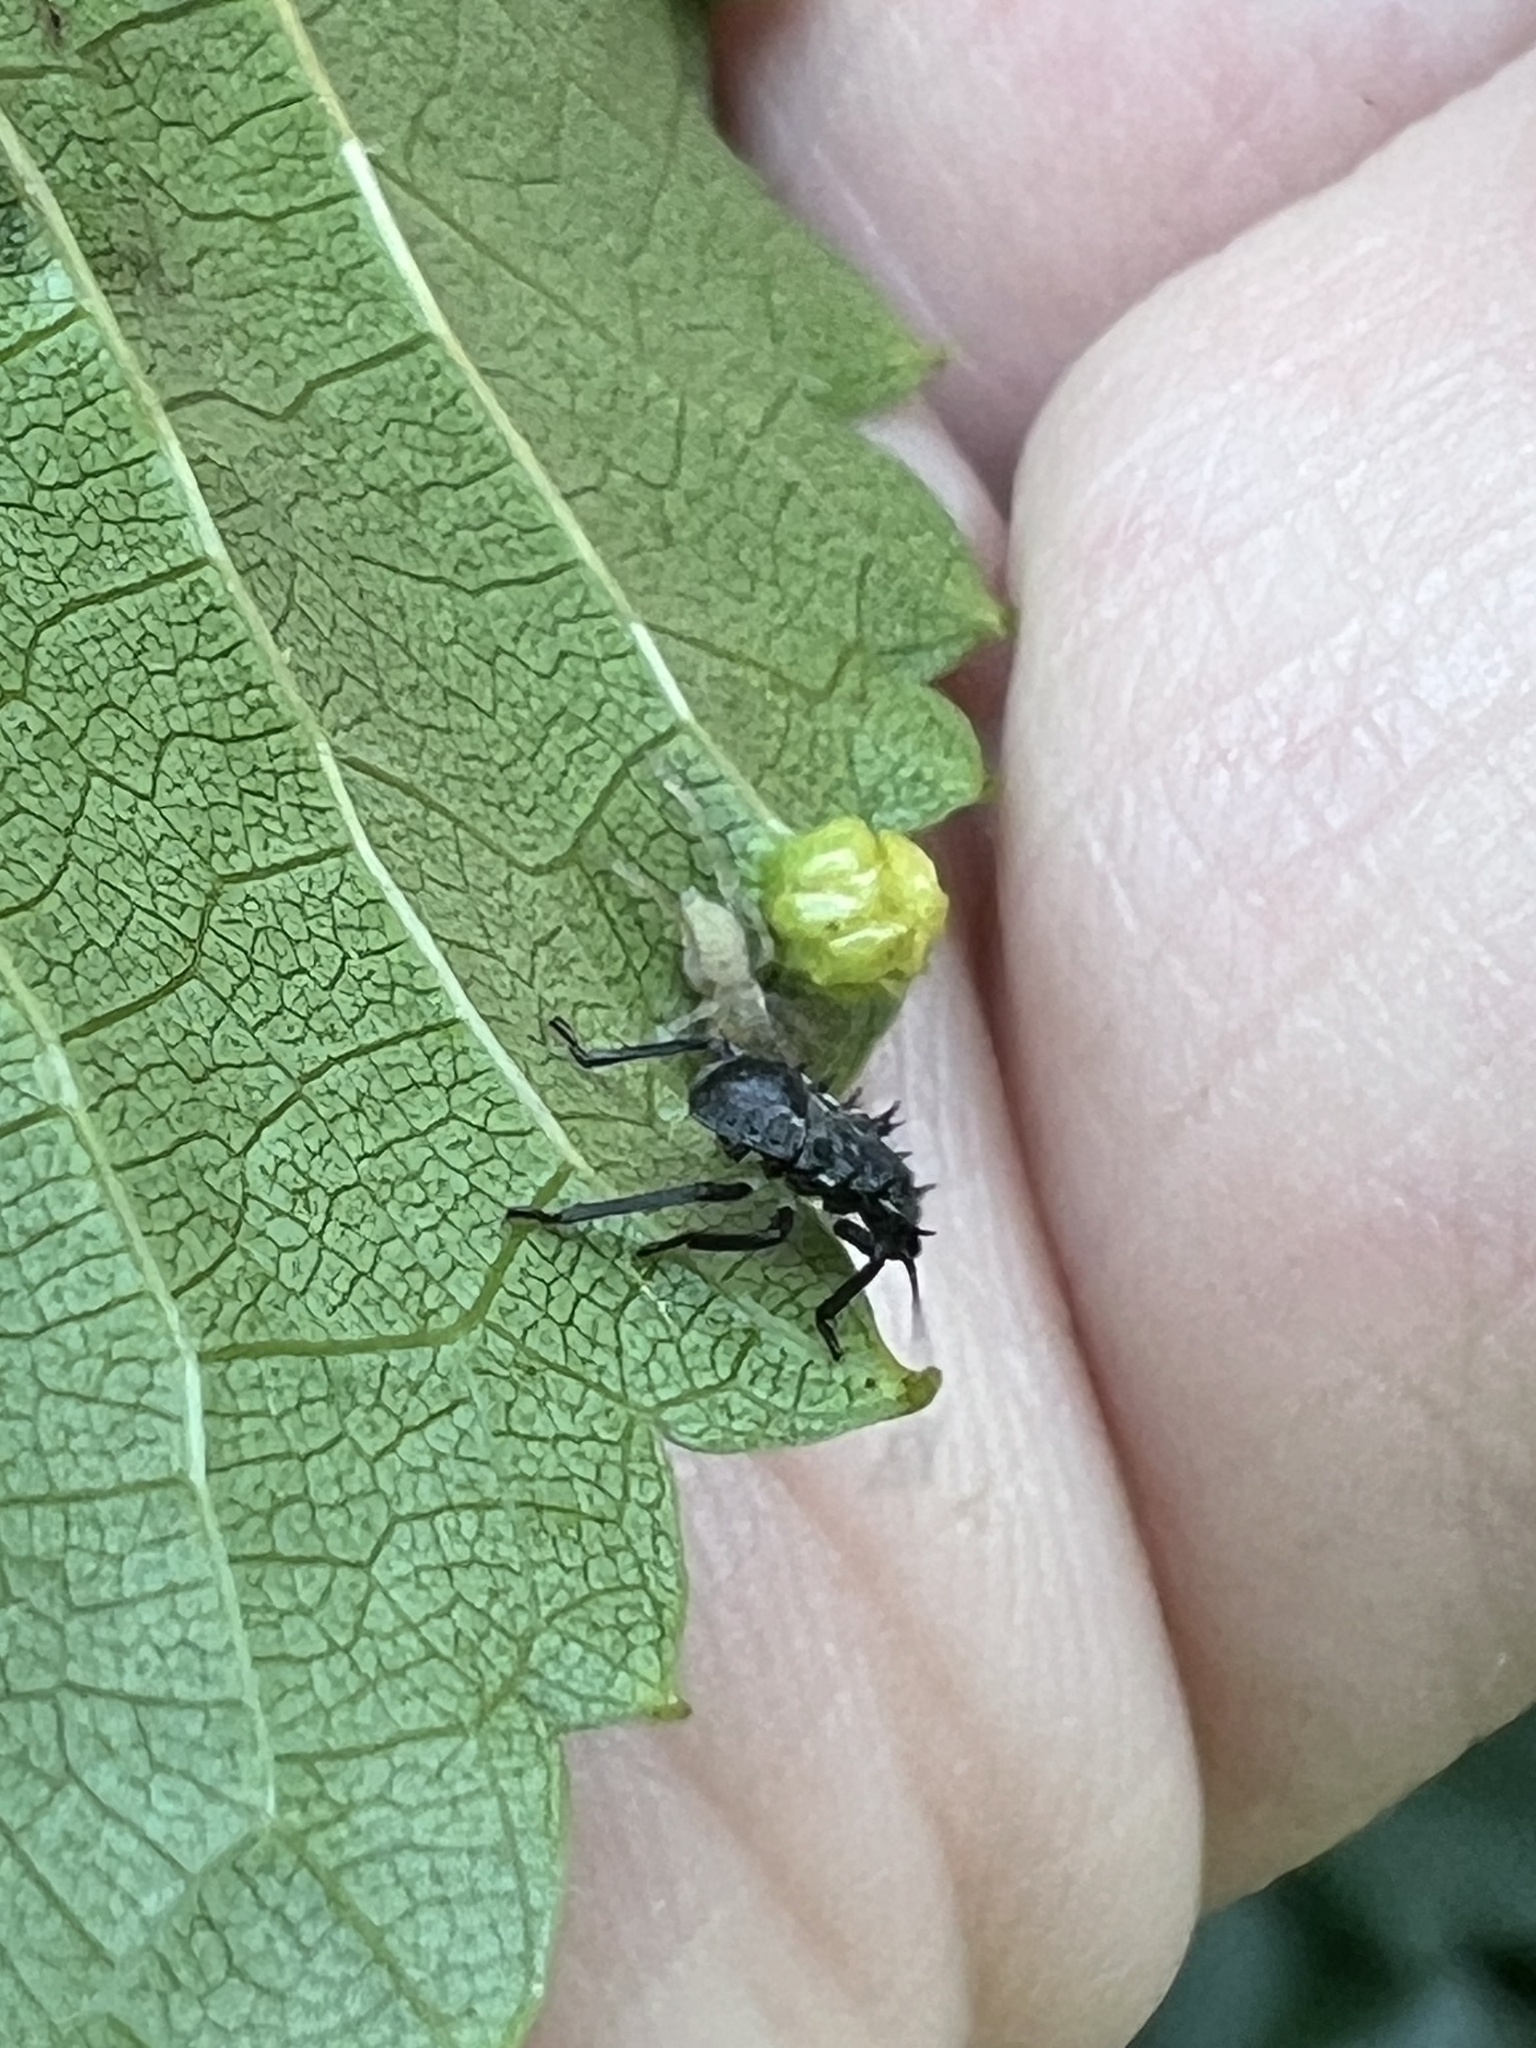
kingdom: Animalia
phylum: Arthropoda
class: Insecta
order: Hemiptera
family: Pentatomidae
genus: Halyomorpha
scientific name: Halyomorpha halys
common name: Brown marmorated stink bug
